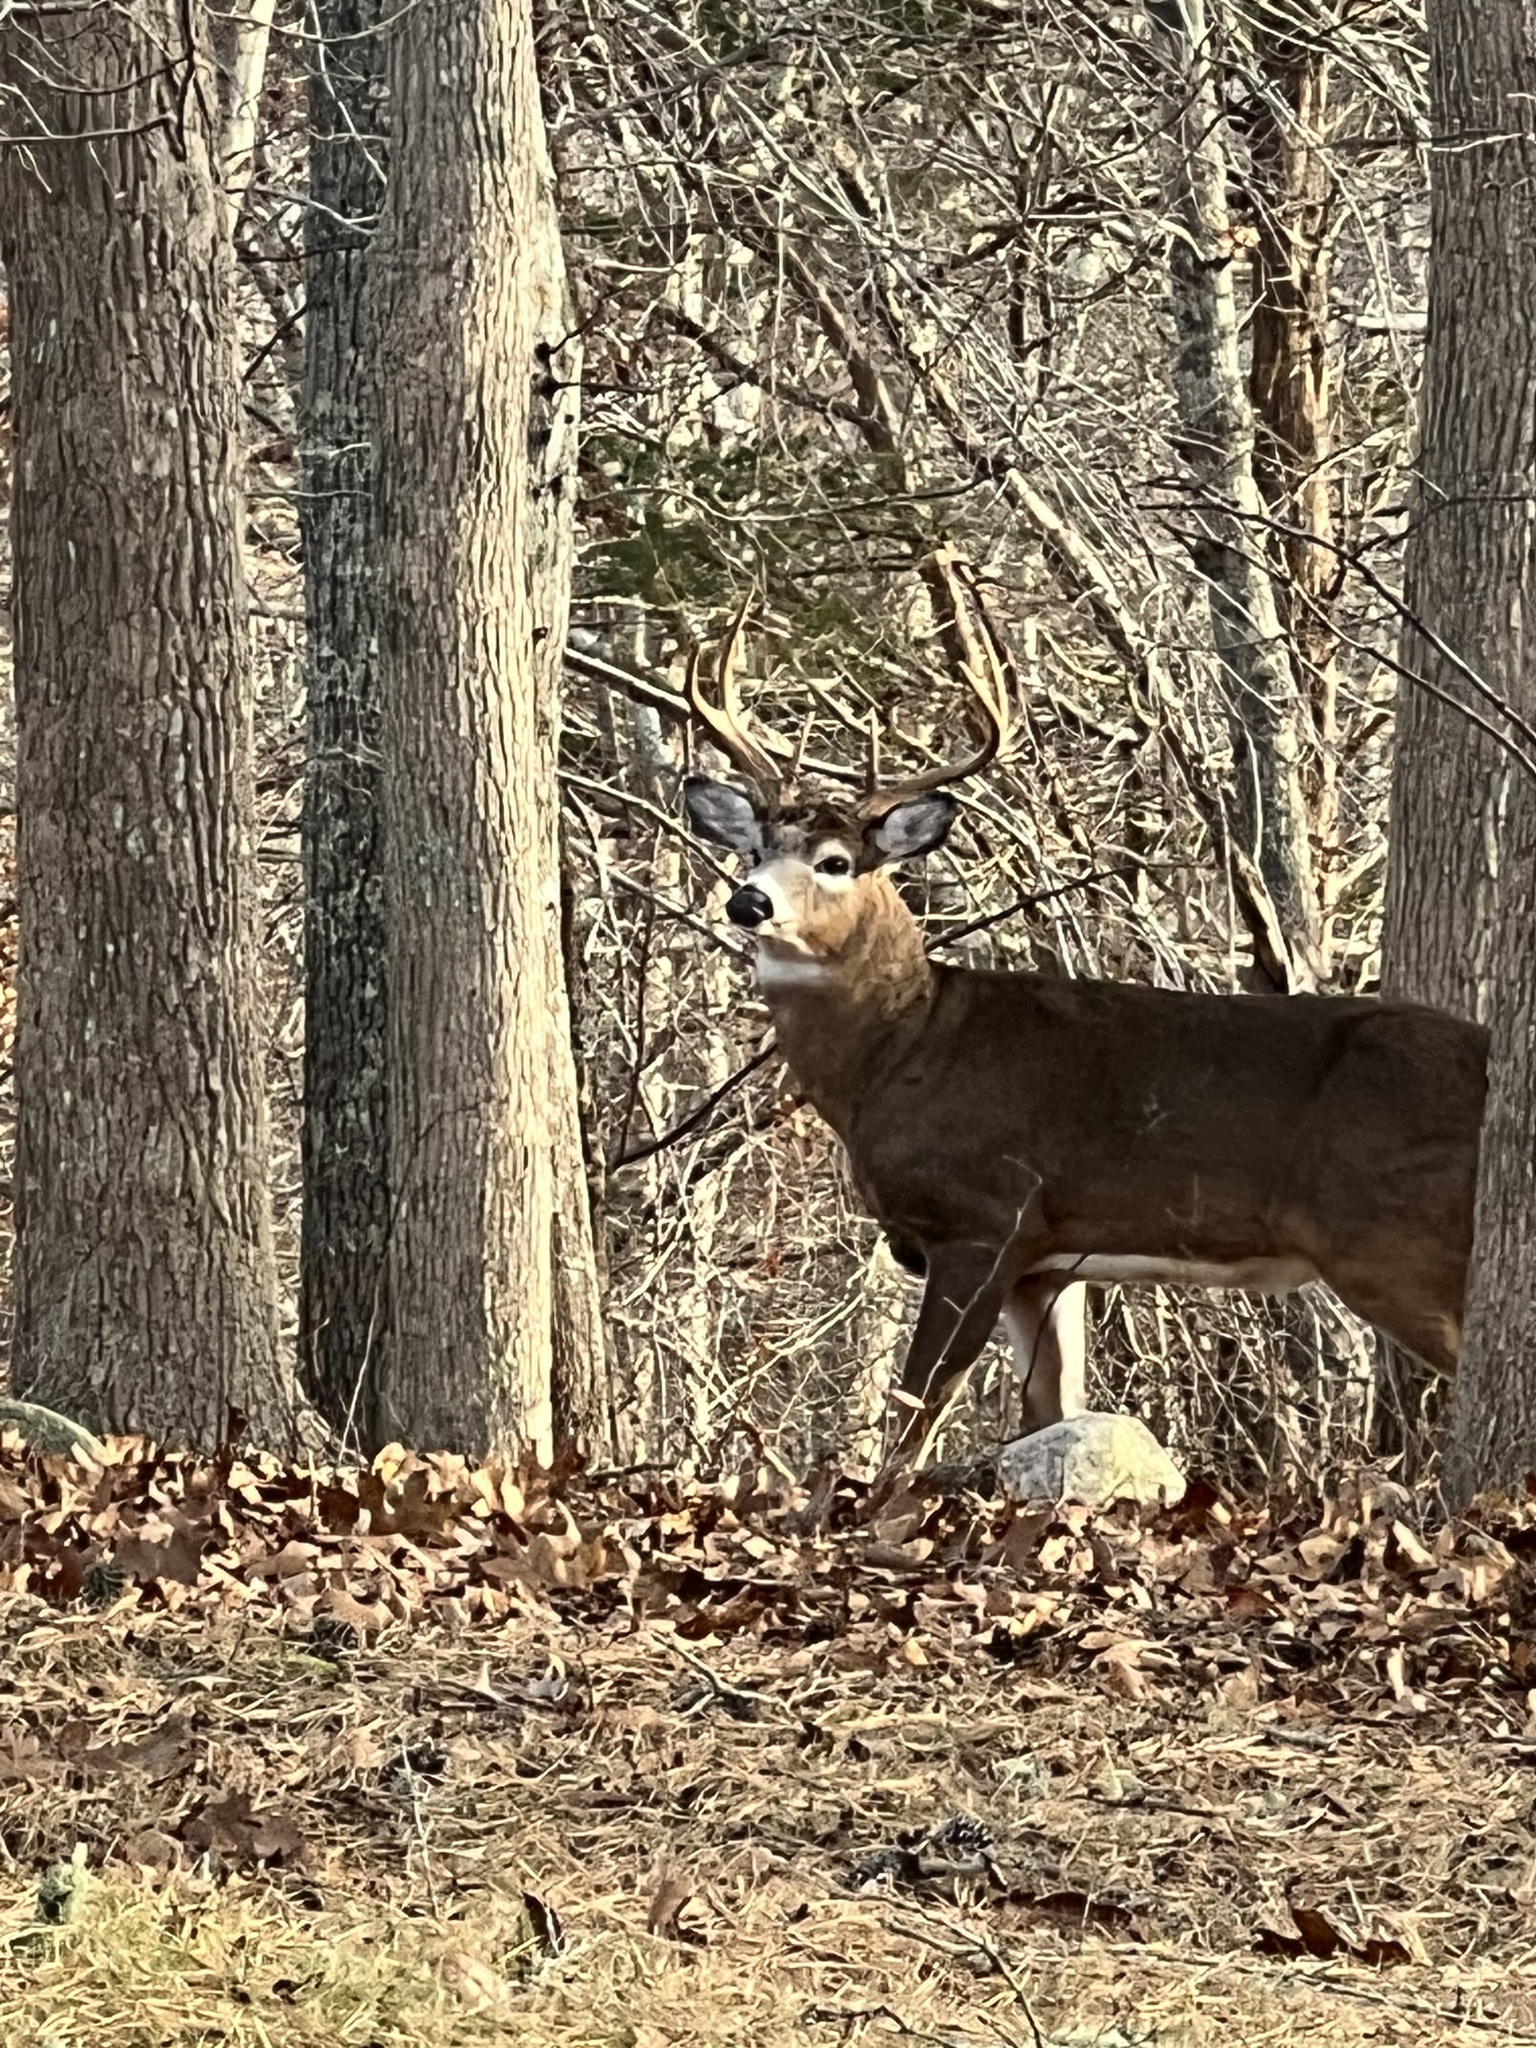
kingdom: Animalia
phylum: Chordata
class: Mammalia
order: Artiodactyla
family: Cervidae
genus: Odocoileus
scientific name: Odocoileus virginianus
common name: White-tailed deer
